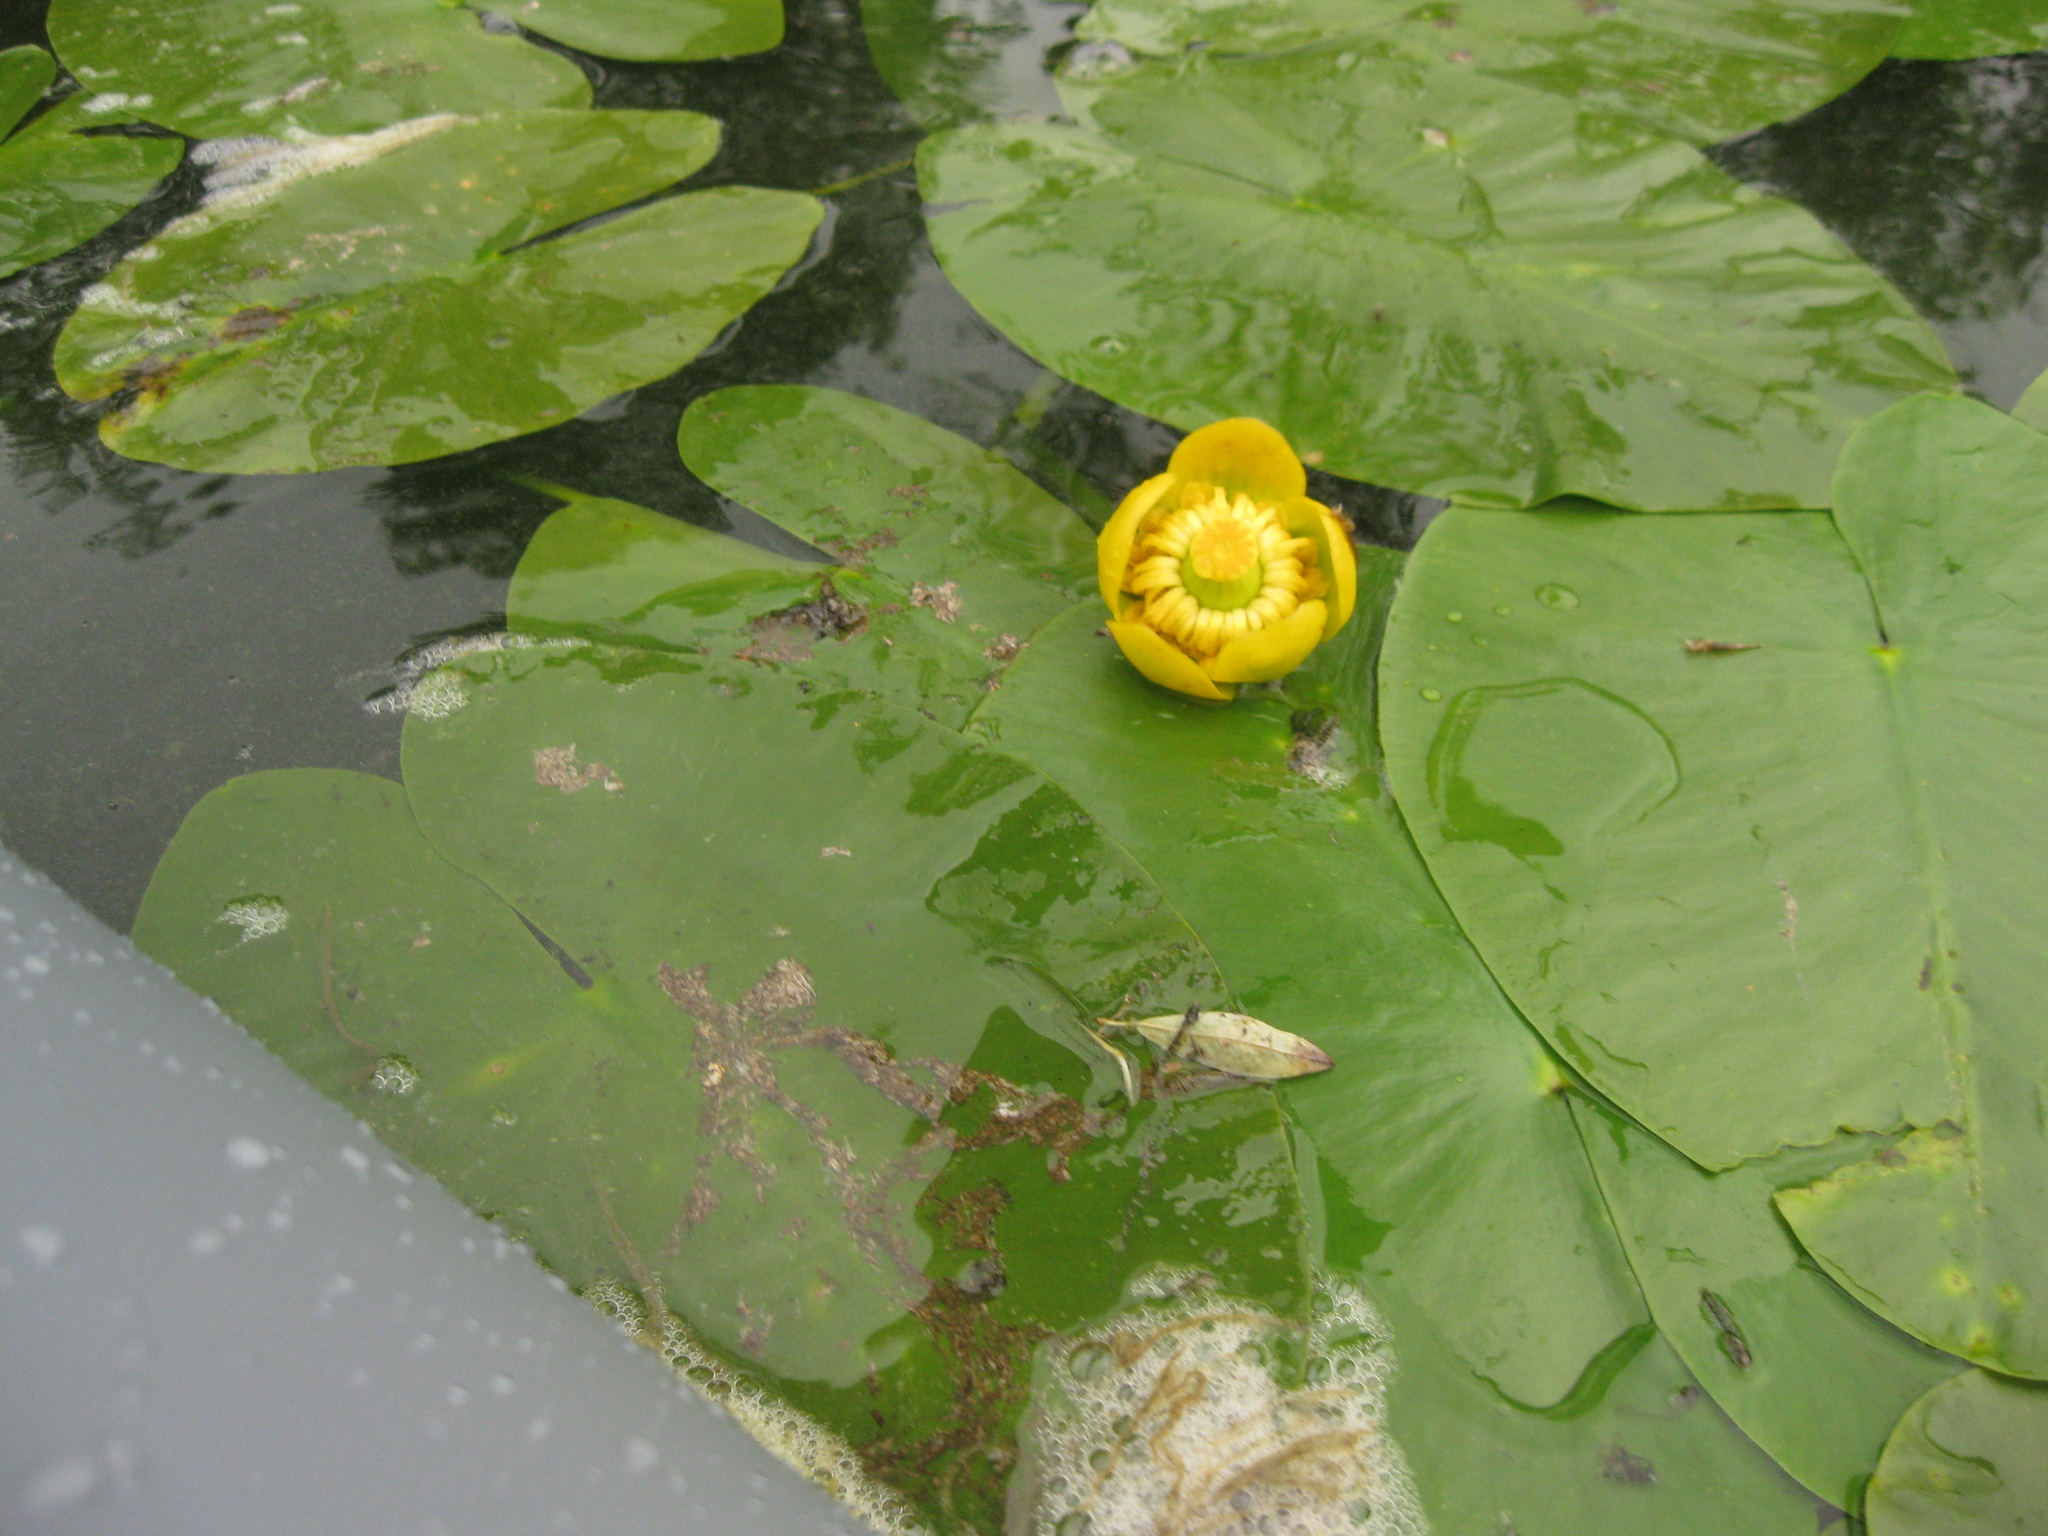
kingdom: Plantae
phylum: Tracheophyta
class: Magnoliopsida
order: Nymphaeales
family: Nymphaeaceae
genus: Nuphar
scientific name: Nuphar lutea
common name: Yellow water-lily
